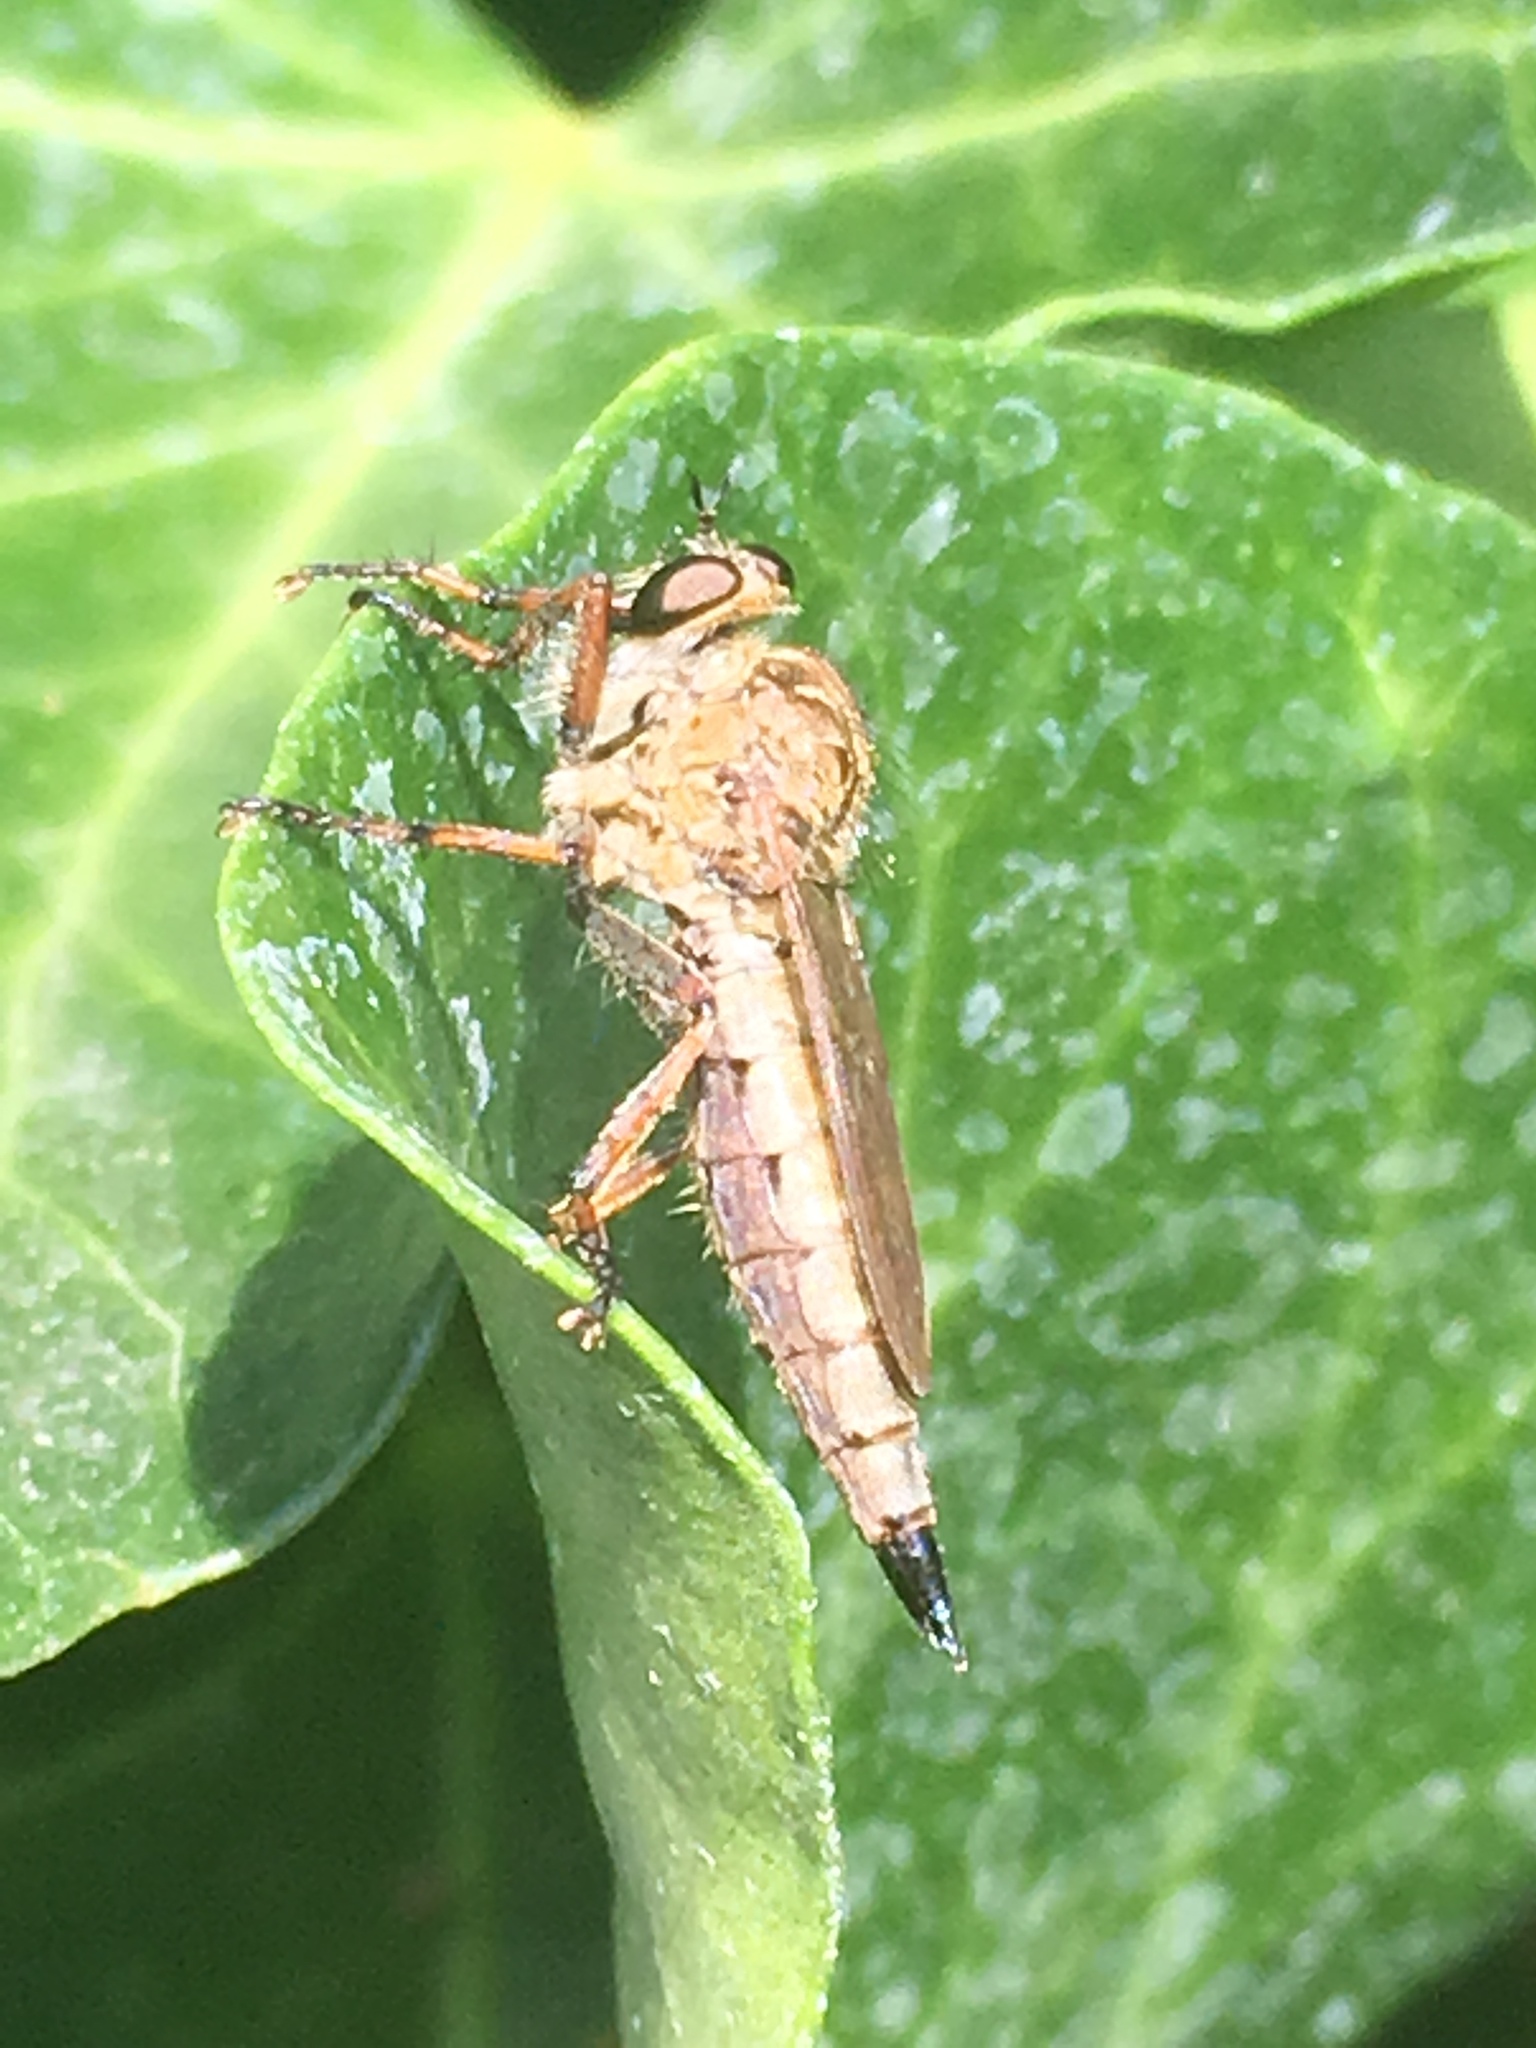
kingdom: Animalia
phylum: Arthropoda
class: Insecta
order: Diptera
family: Asilidae
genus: Epitriptus
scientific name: Epitriptus cingulatus
